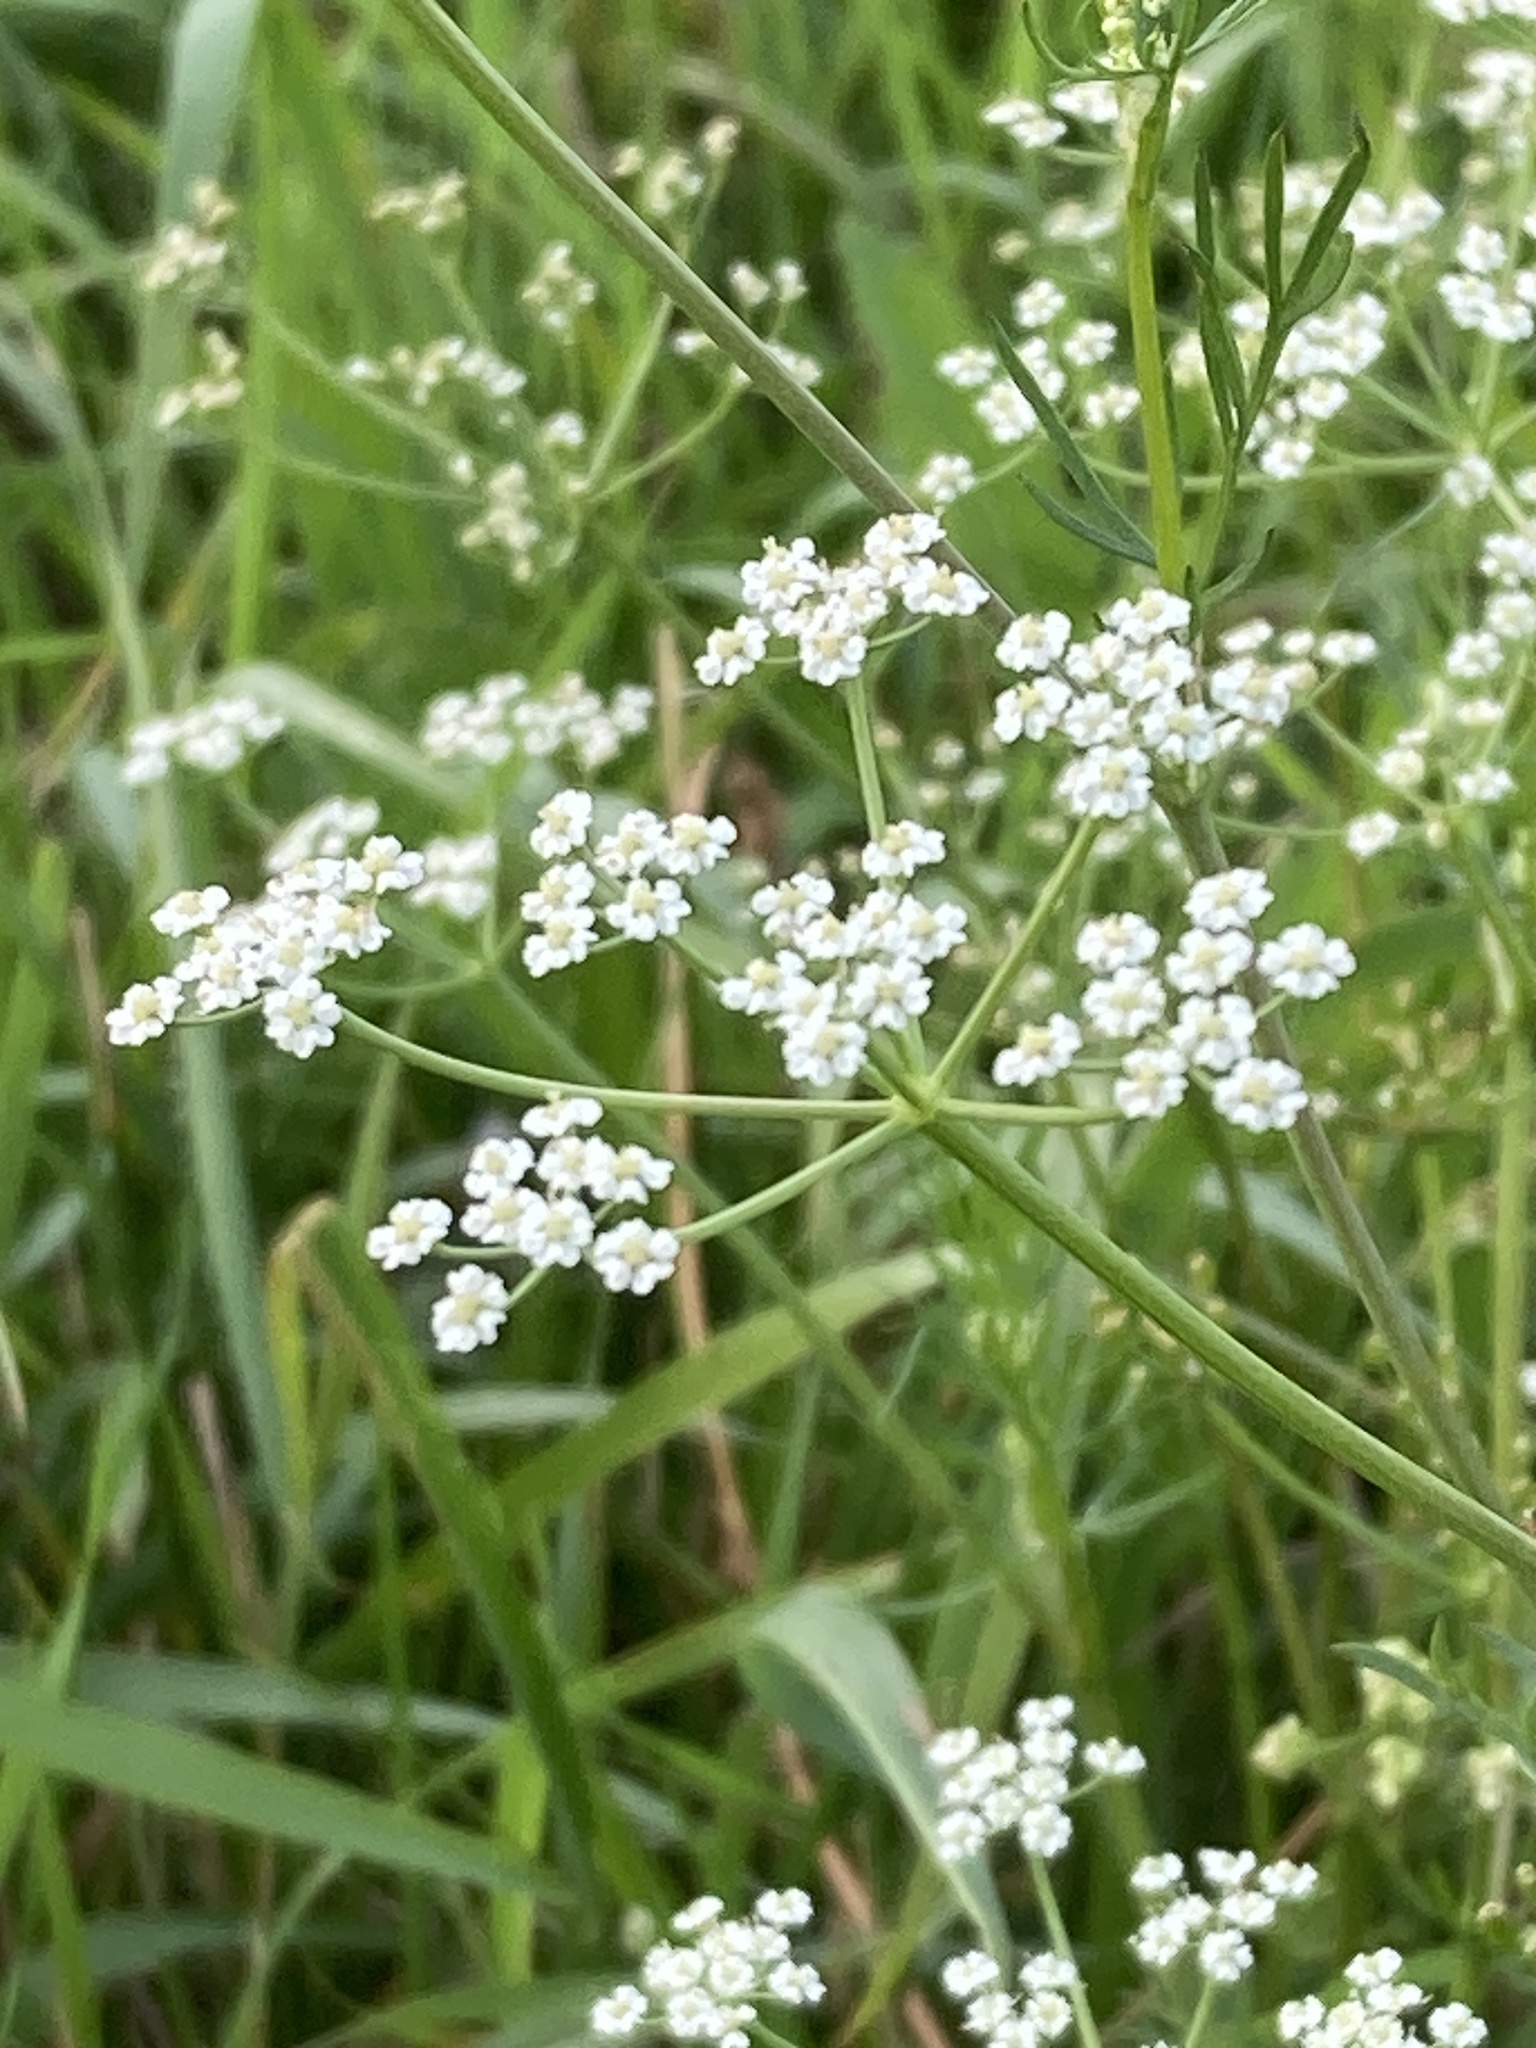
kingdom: Plantae
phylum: Tracheophyta
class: Magnoliopsida
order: Apiales
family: Apiaceae
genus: Carum
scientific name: Carum carvi
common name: Caraway
